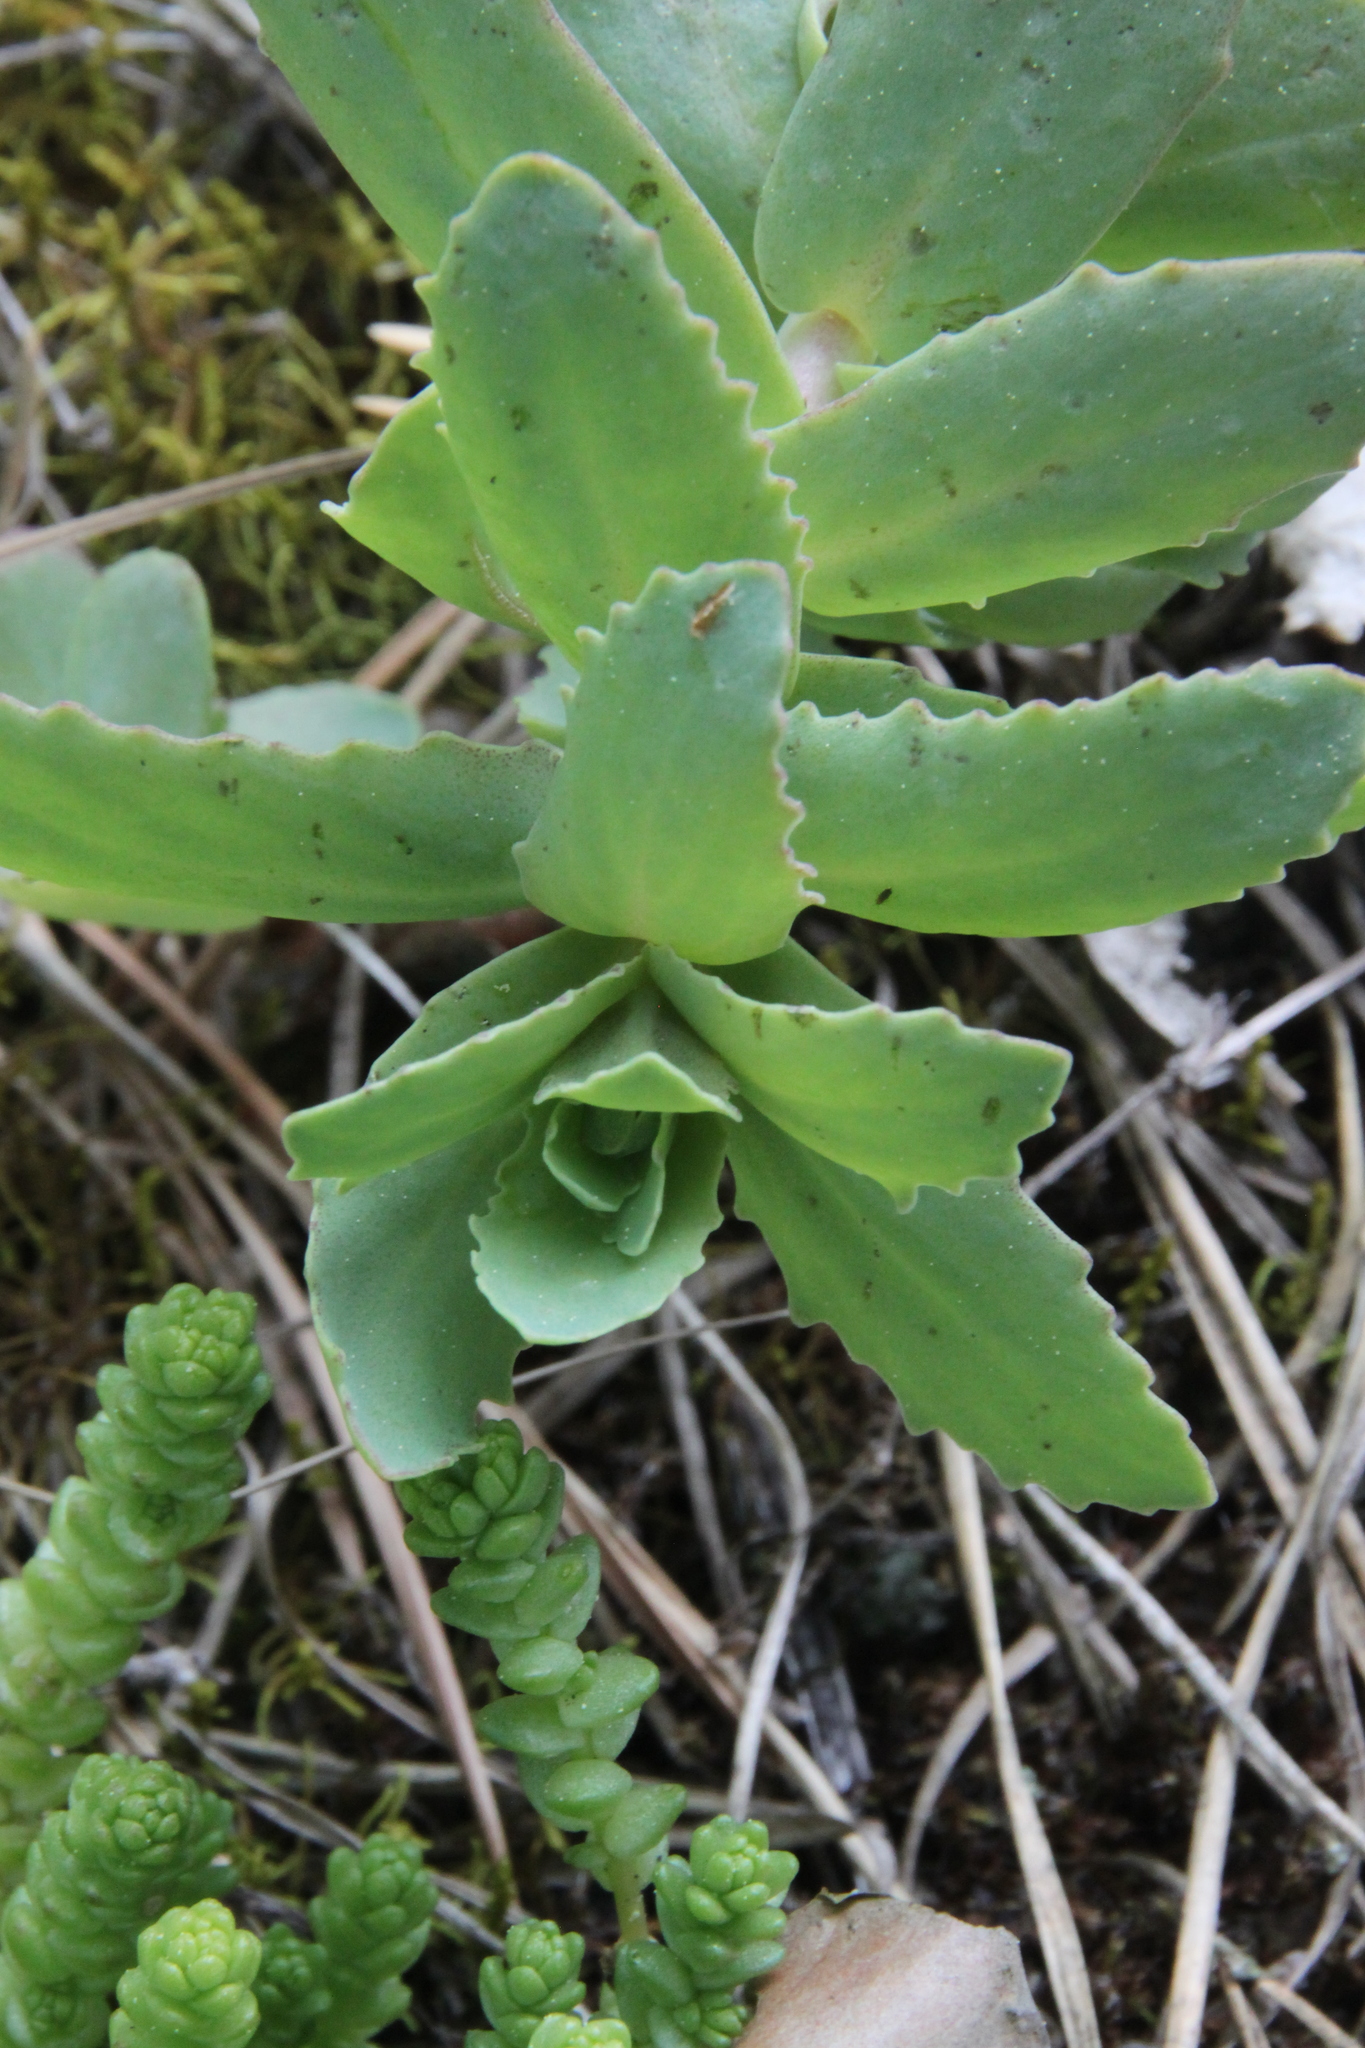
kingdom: Plantae
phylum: Tracheophyta
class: Magnoliopsida
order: Saxifragales
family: Crassulaceae
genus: Hylotelephium
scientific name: Hylotelephium telephium
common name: Live-forever
